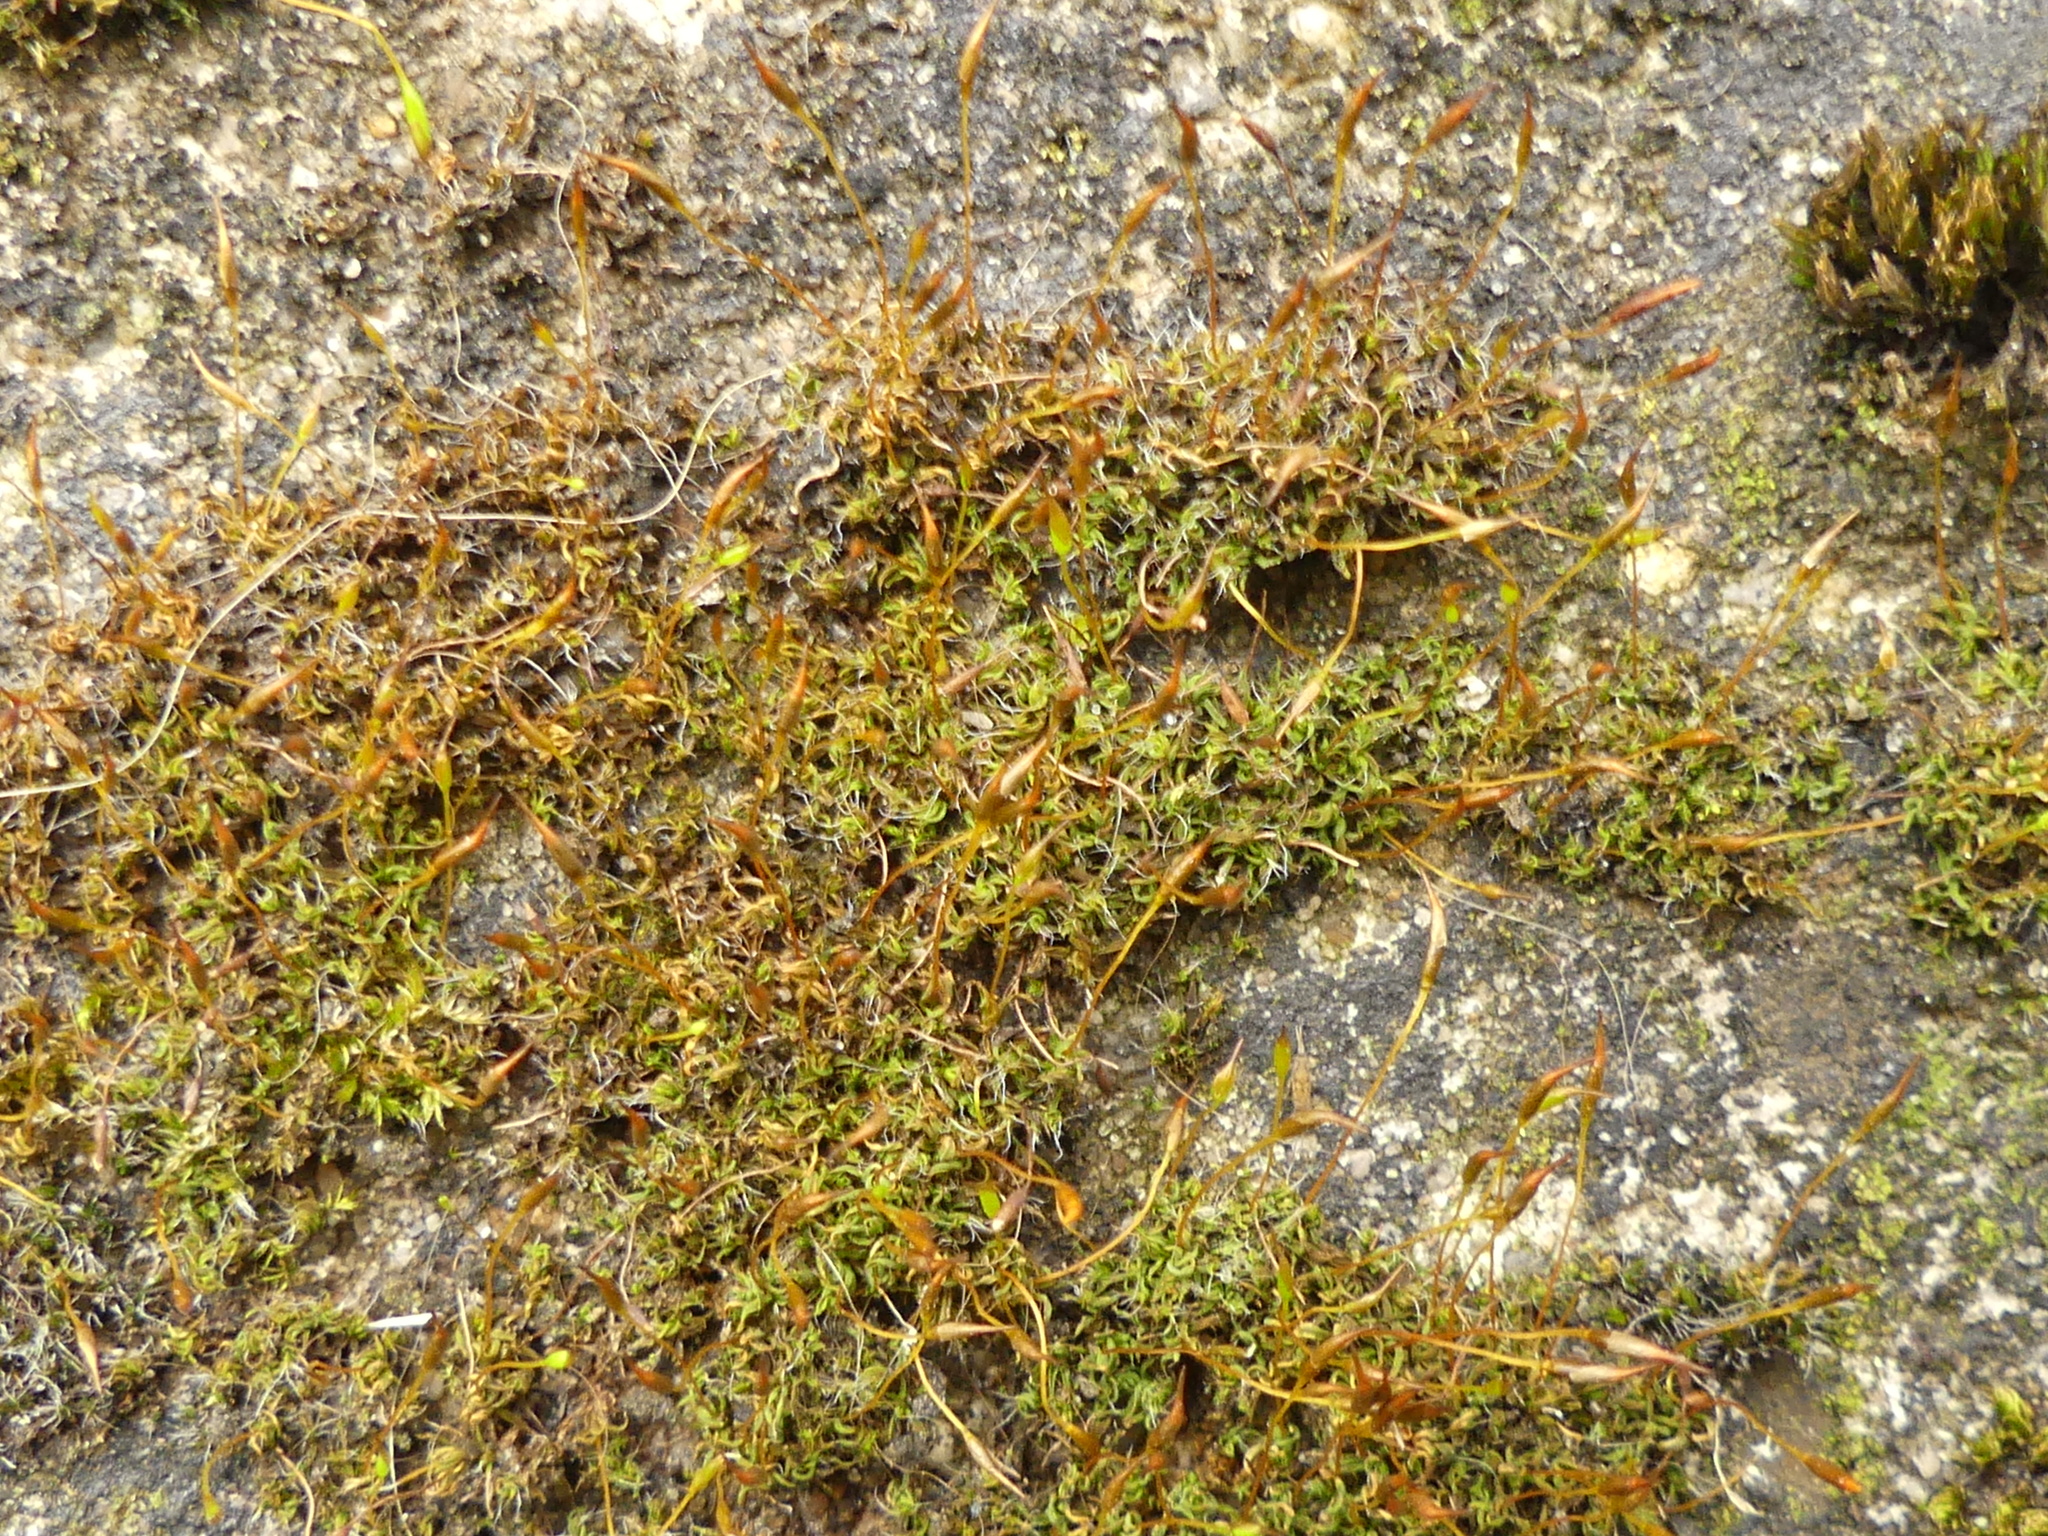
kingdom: Plantae
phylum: Bryophyta
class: Bryopsida
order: Pottiales
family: Pottiaceae
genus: Tortula
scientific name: Tortula muralis
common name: Wall screw-moss
